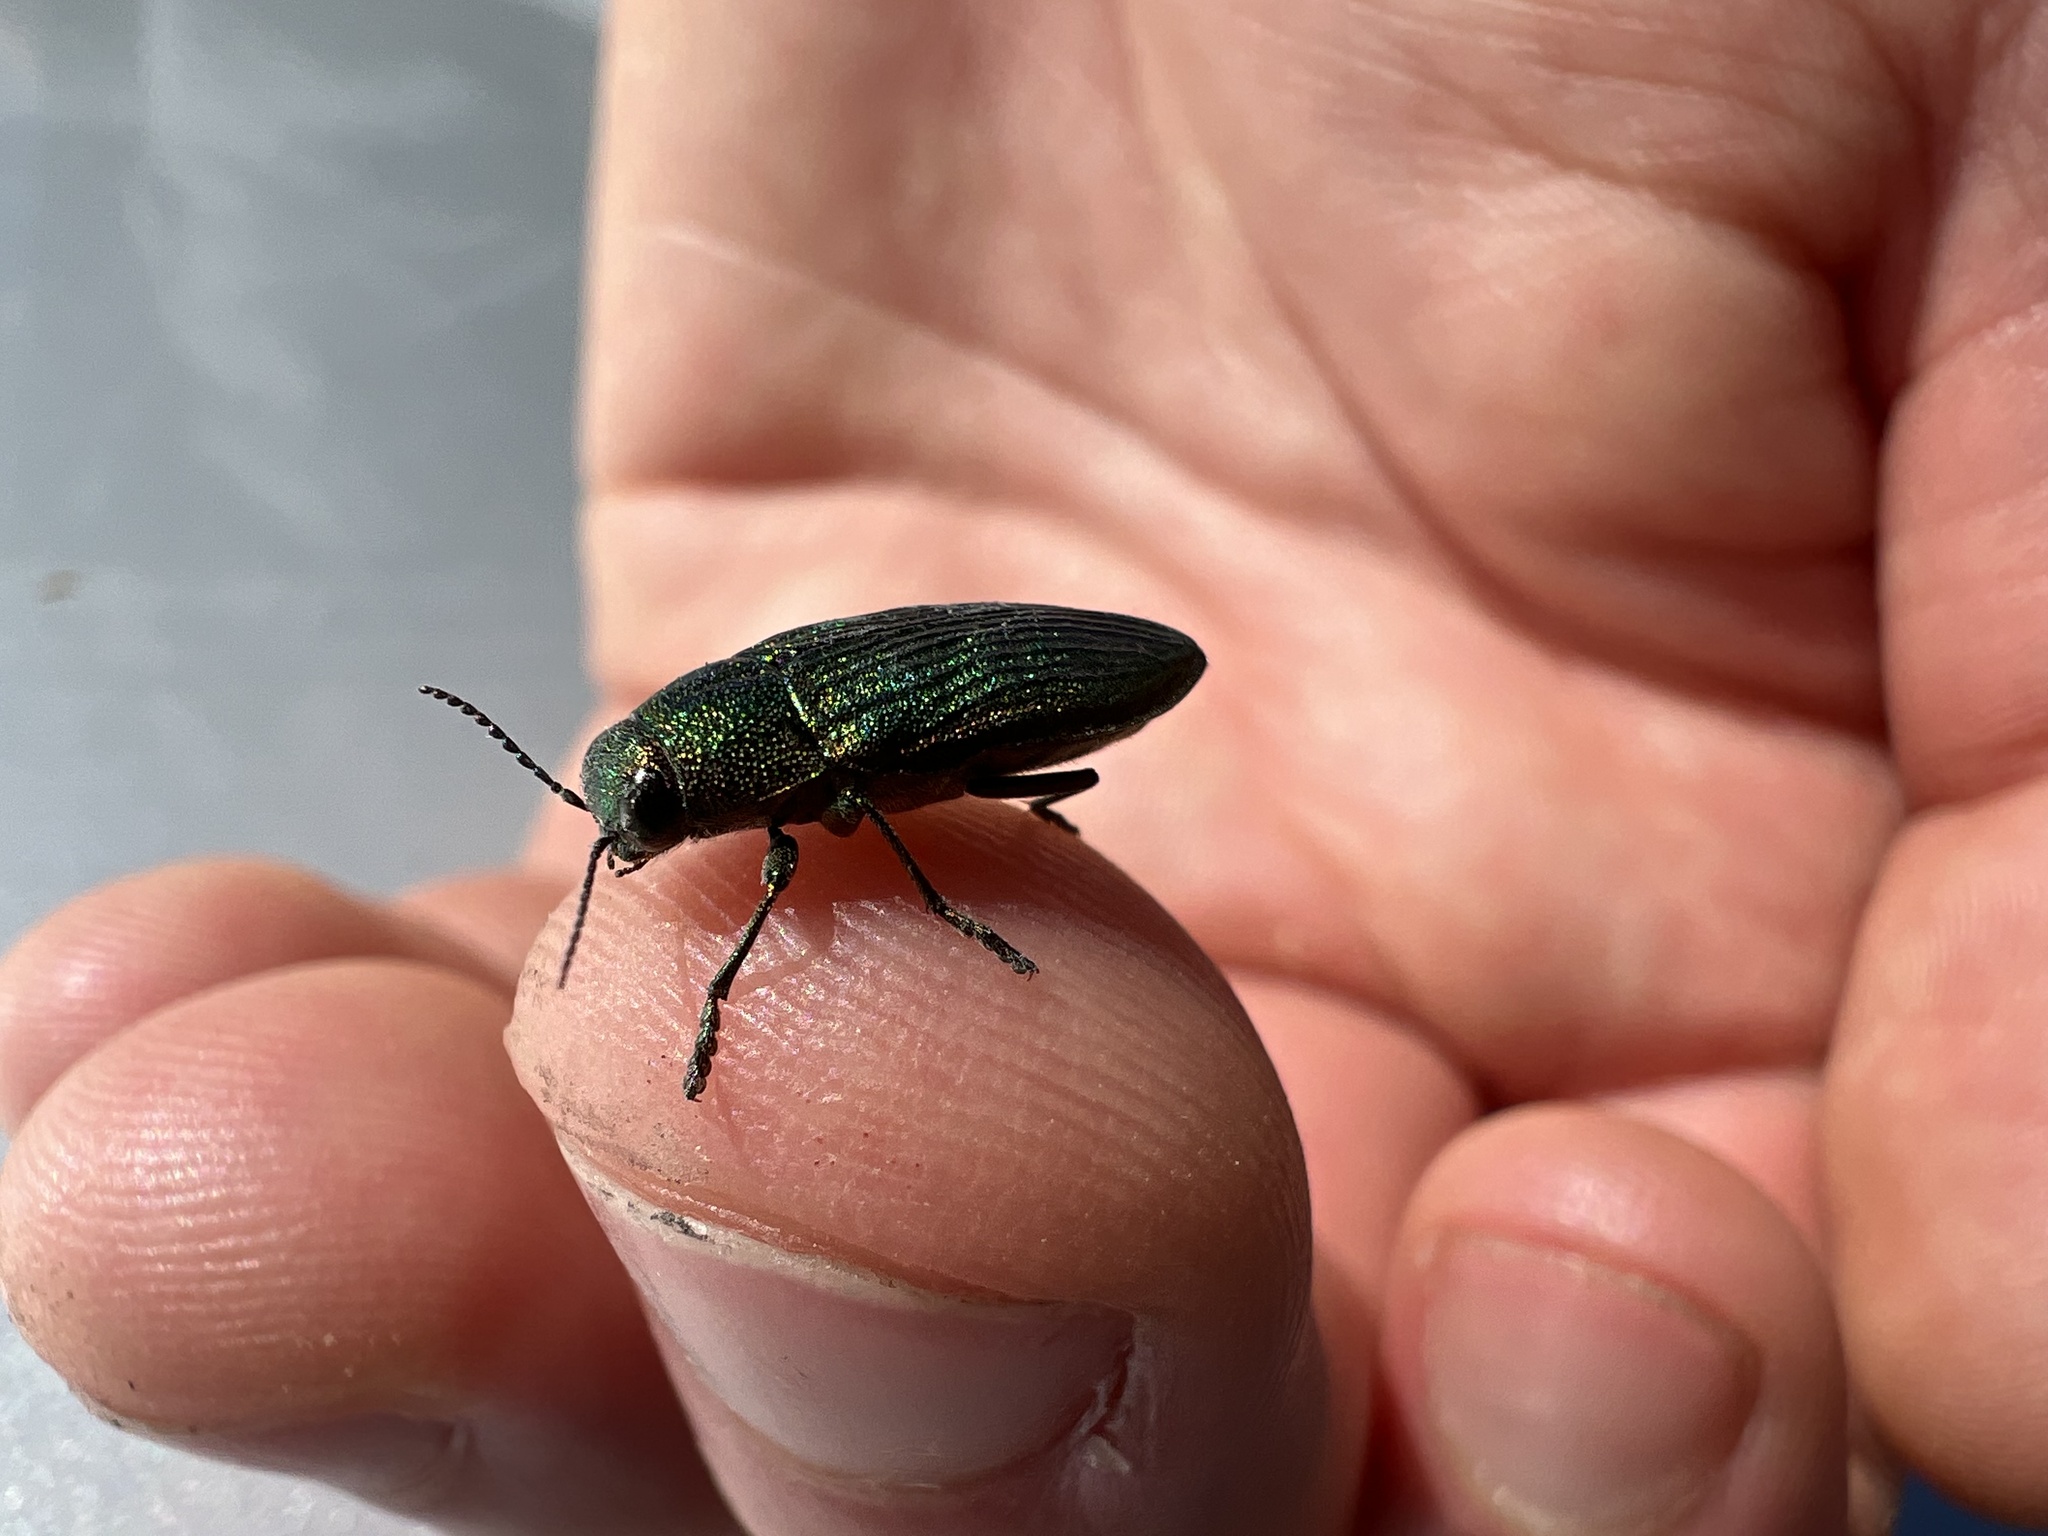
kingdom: Animalia
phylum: Arthropoda
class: Insecta
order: Coleoptera
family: Buprestidae
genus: Buprestis
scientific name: Buprestis adjecta
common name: Buprestid beetle
